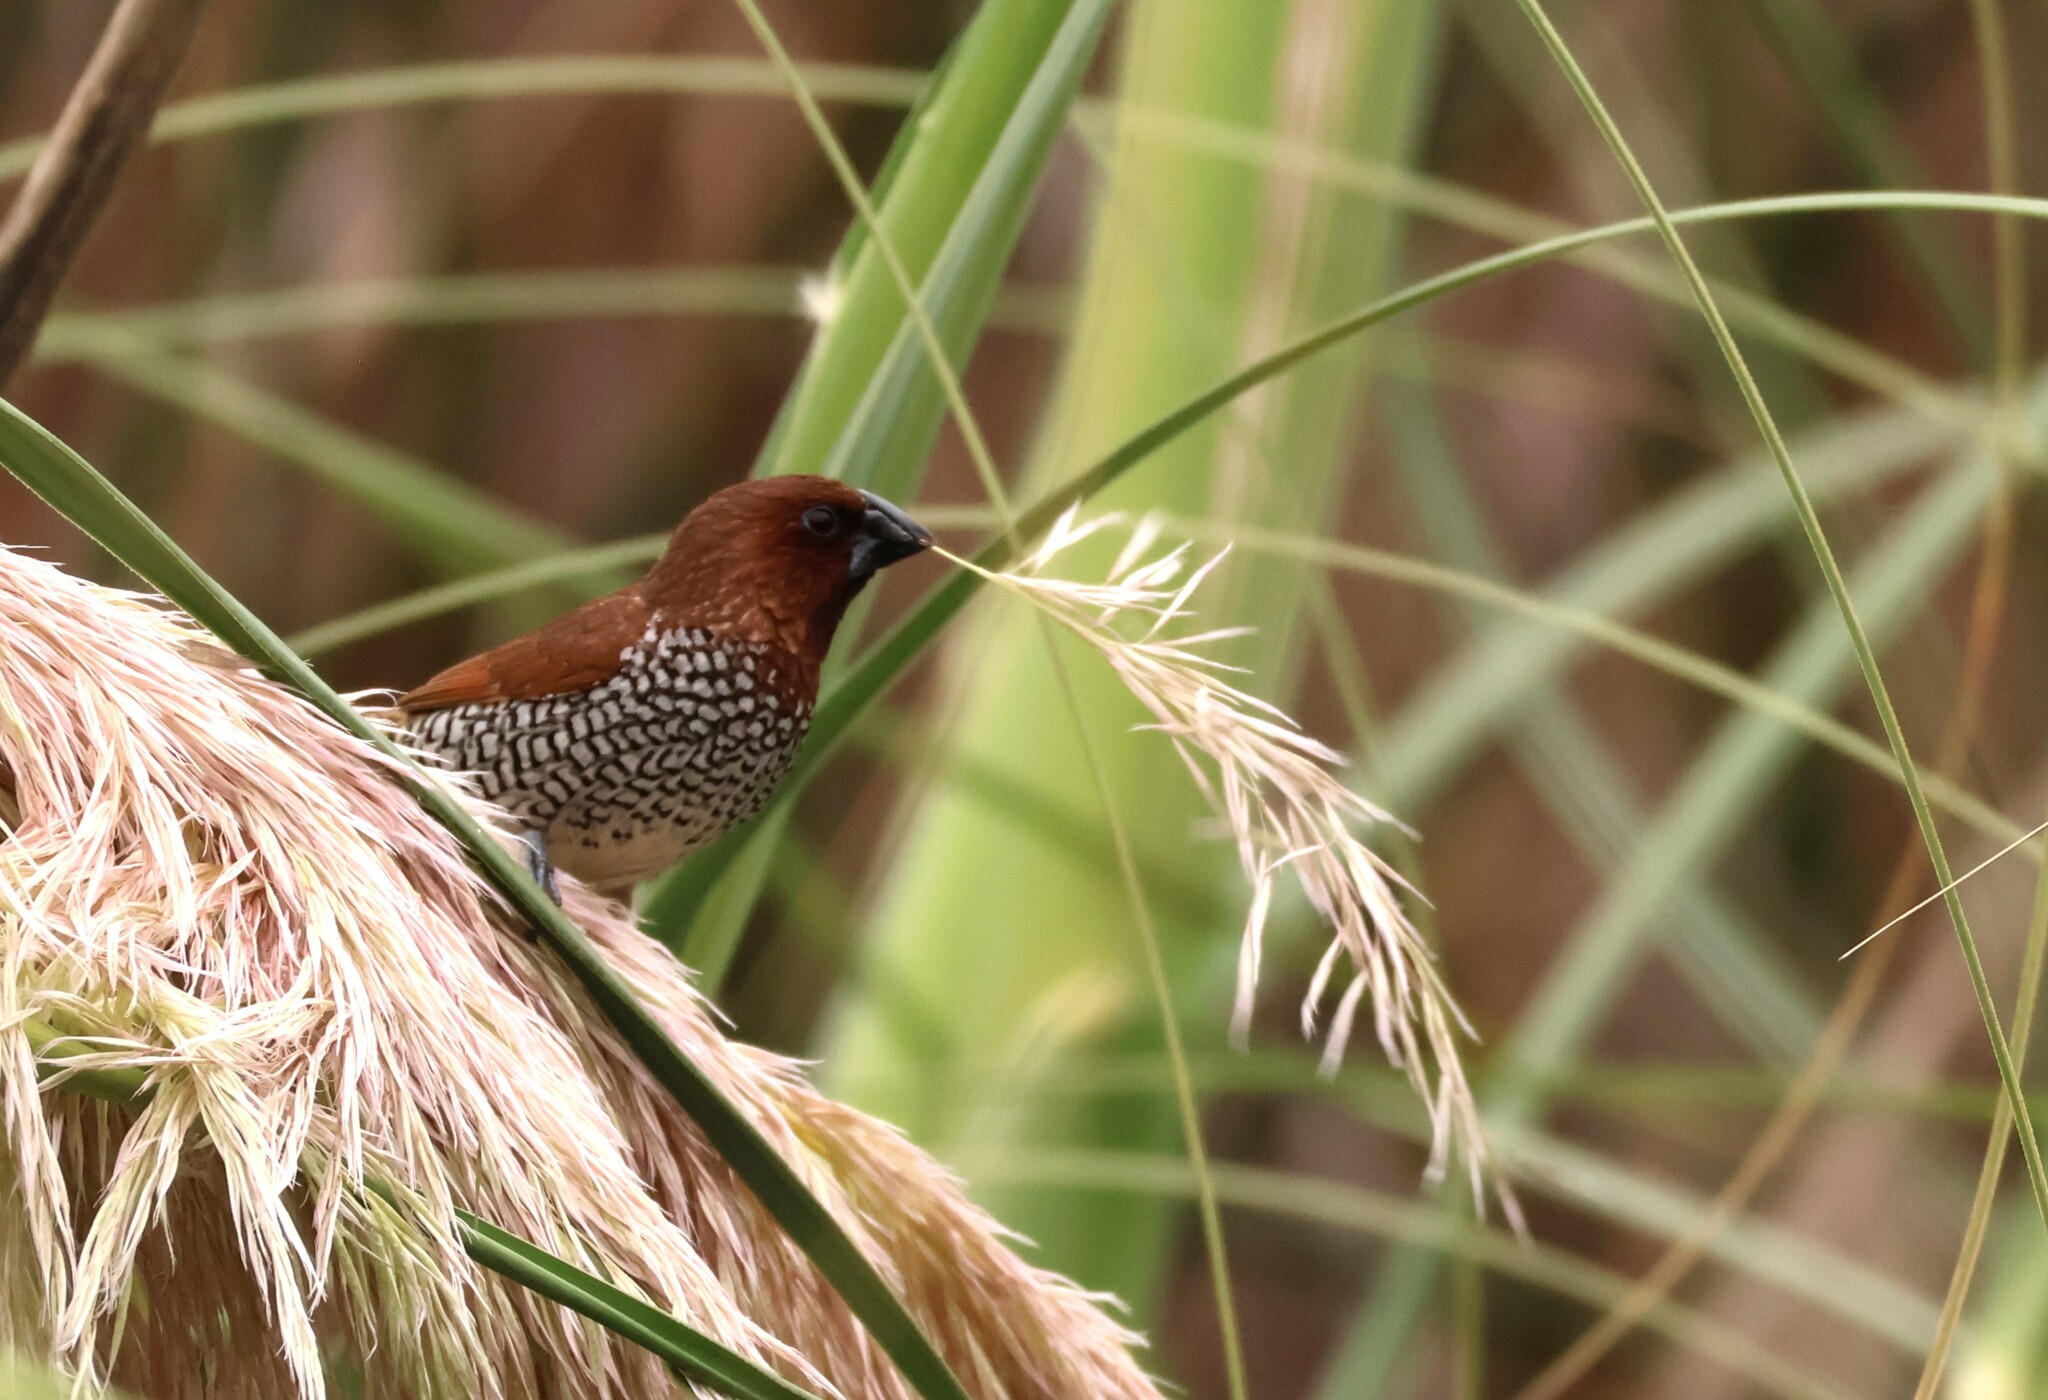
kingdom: Animalia
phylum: Chordata
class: Aves
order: Passeriformes
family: Estrildidae
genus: Lonchura
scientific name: Lonchura punctulata
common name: Scaly-breasted munia
